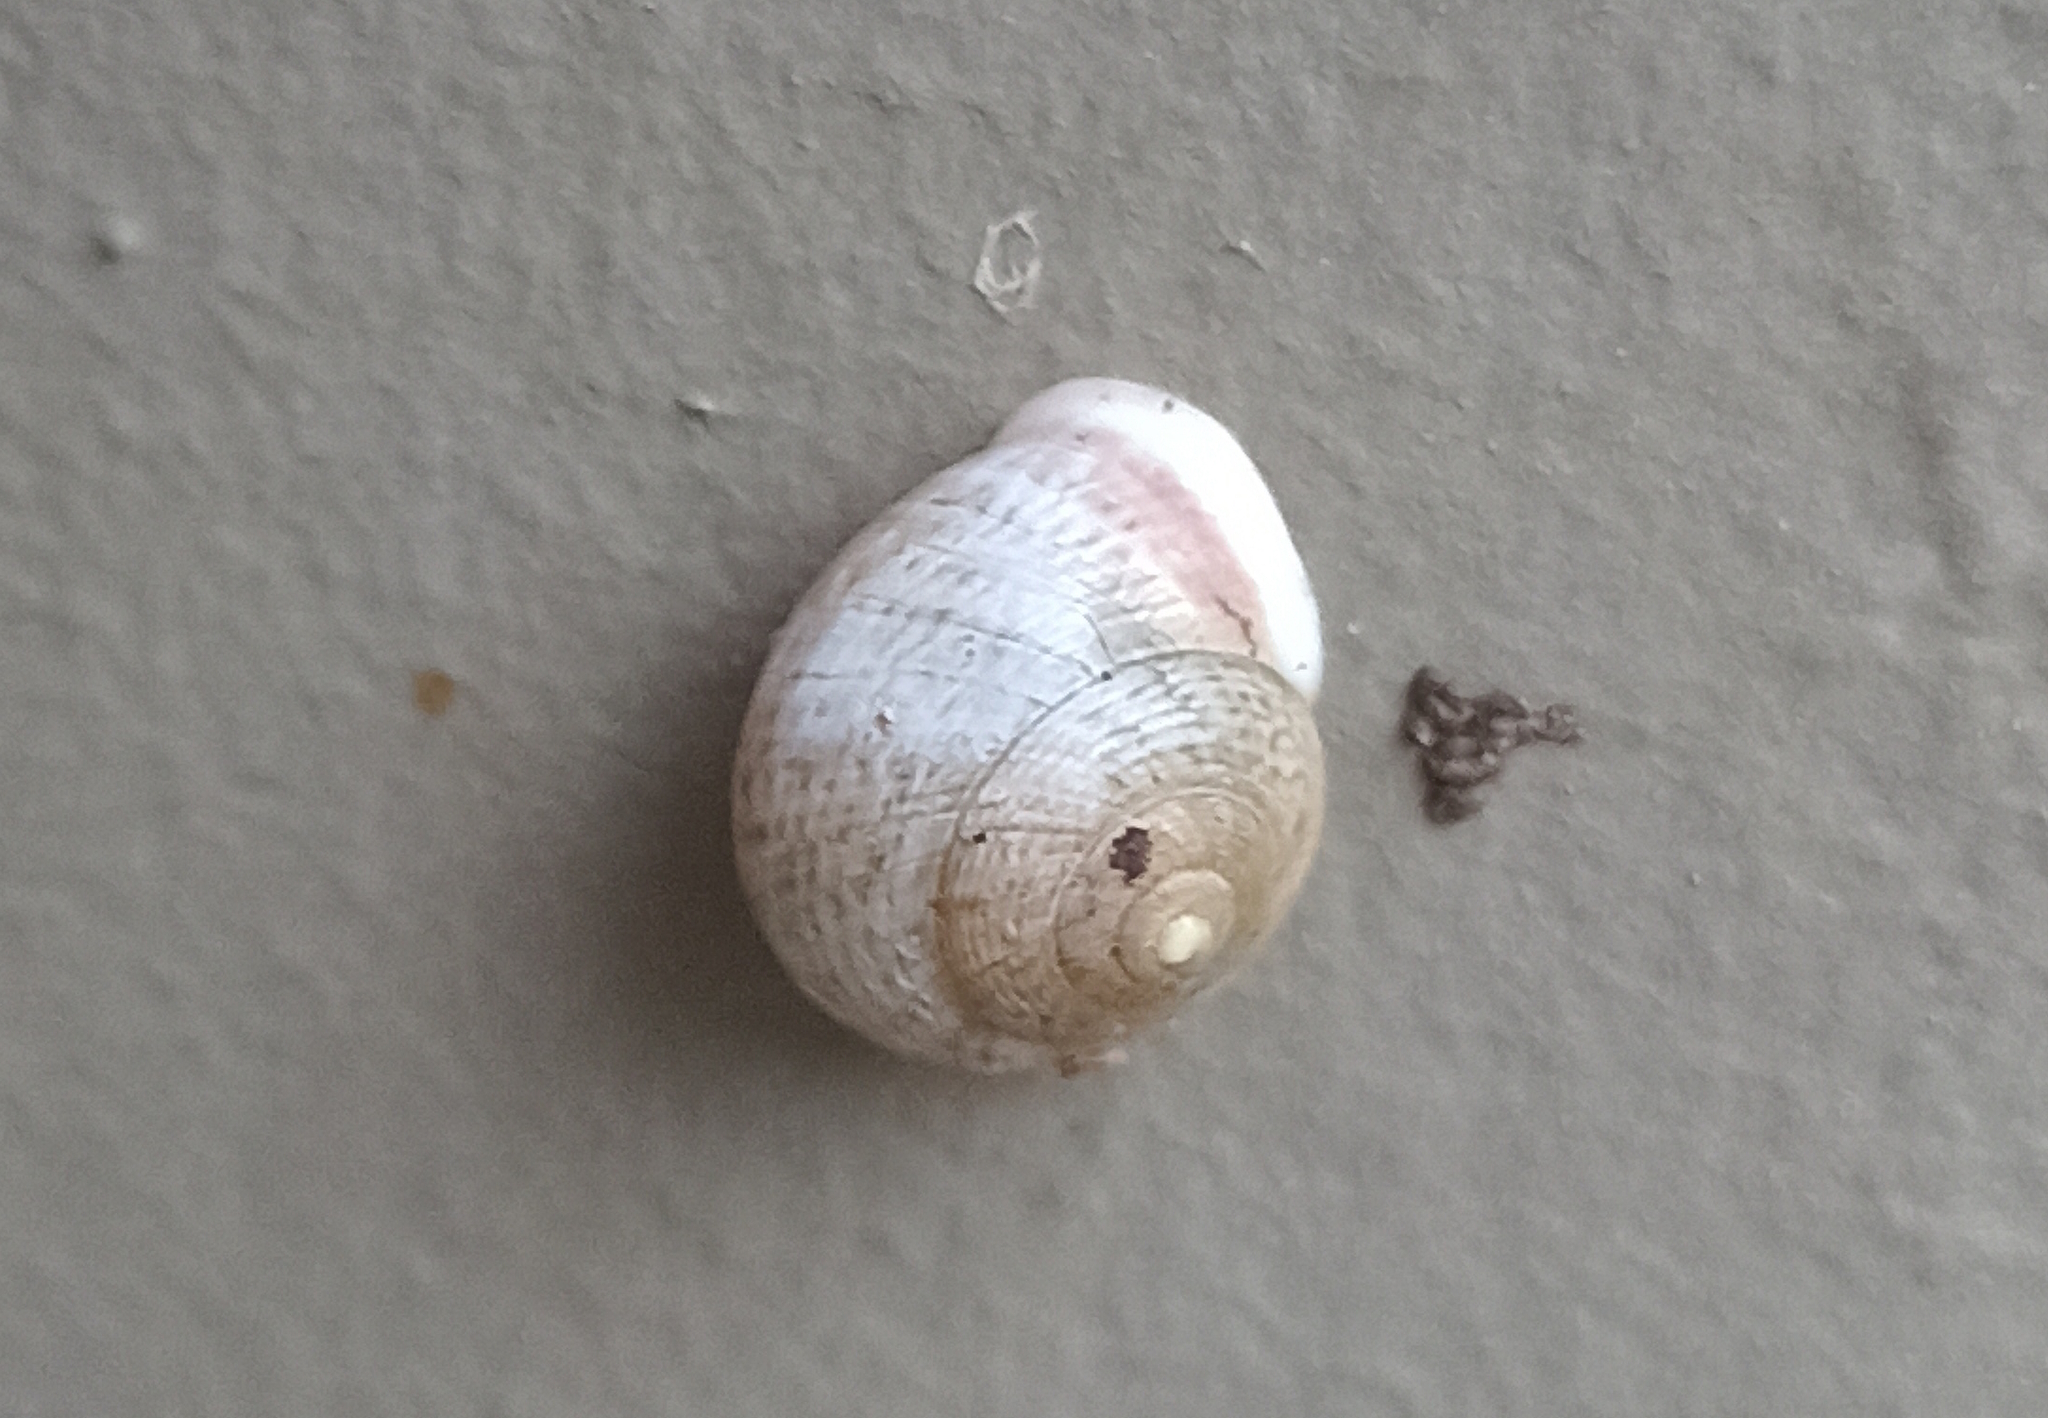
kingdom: Animalia
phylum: Mollusca
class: Gastropoda
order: Cycloneritida
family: Helicinidae
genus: Helicina
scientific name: Helicina boettgeri
